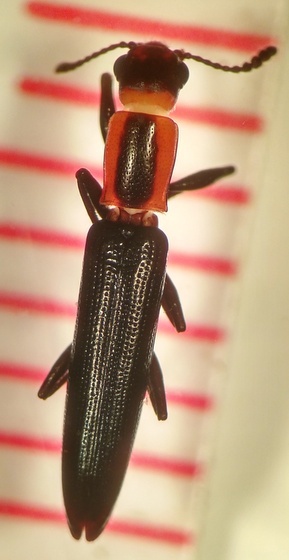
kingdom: Animalia
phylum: Arthropoda
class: Insecta
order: Coleoptera
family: Erotylidae
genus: Acropteroxys
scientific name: Acropteroxys gracilis
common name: Slender lizard beetle
